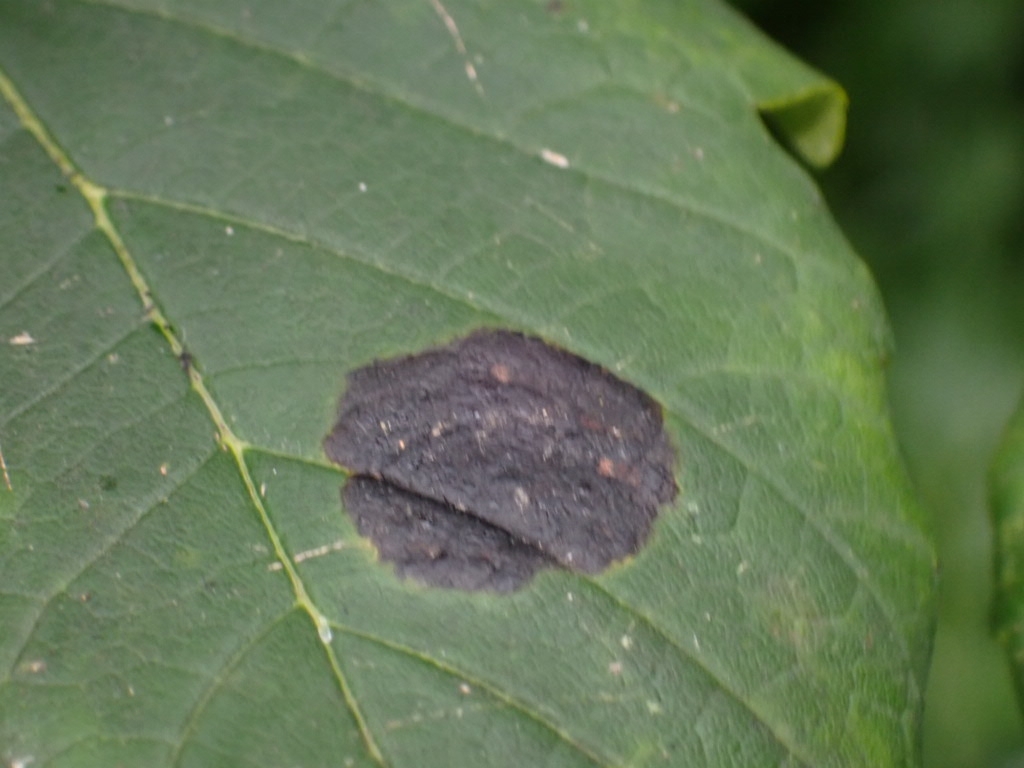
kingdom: Fungi
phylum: Ascomycota
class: Leotiomycetes
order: Rhytismatales
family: Rhytismataceae
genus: Rhytisma
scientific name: Rhytisma acerinum
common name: European tar spot
